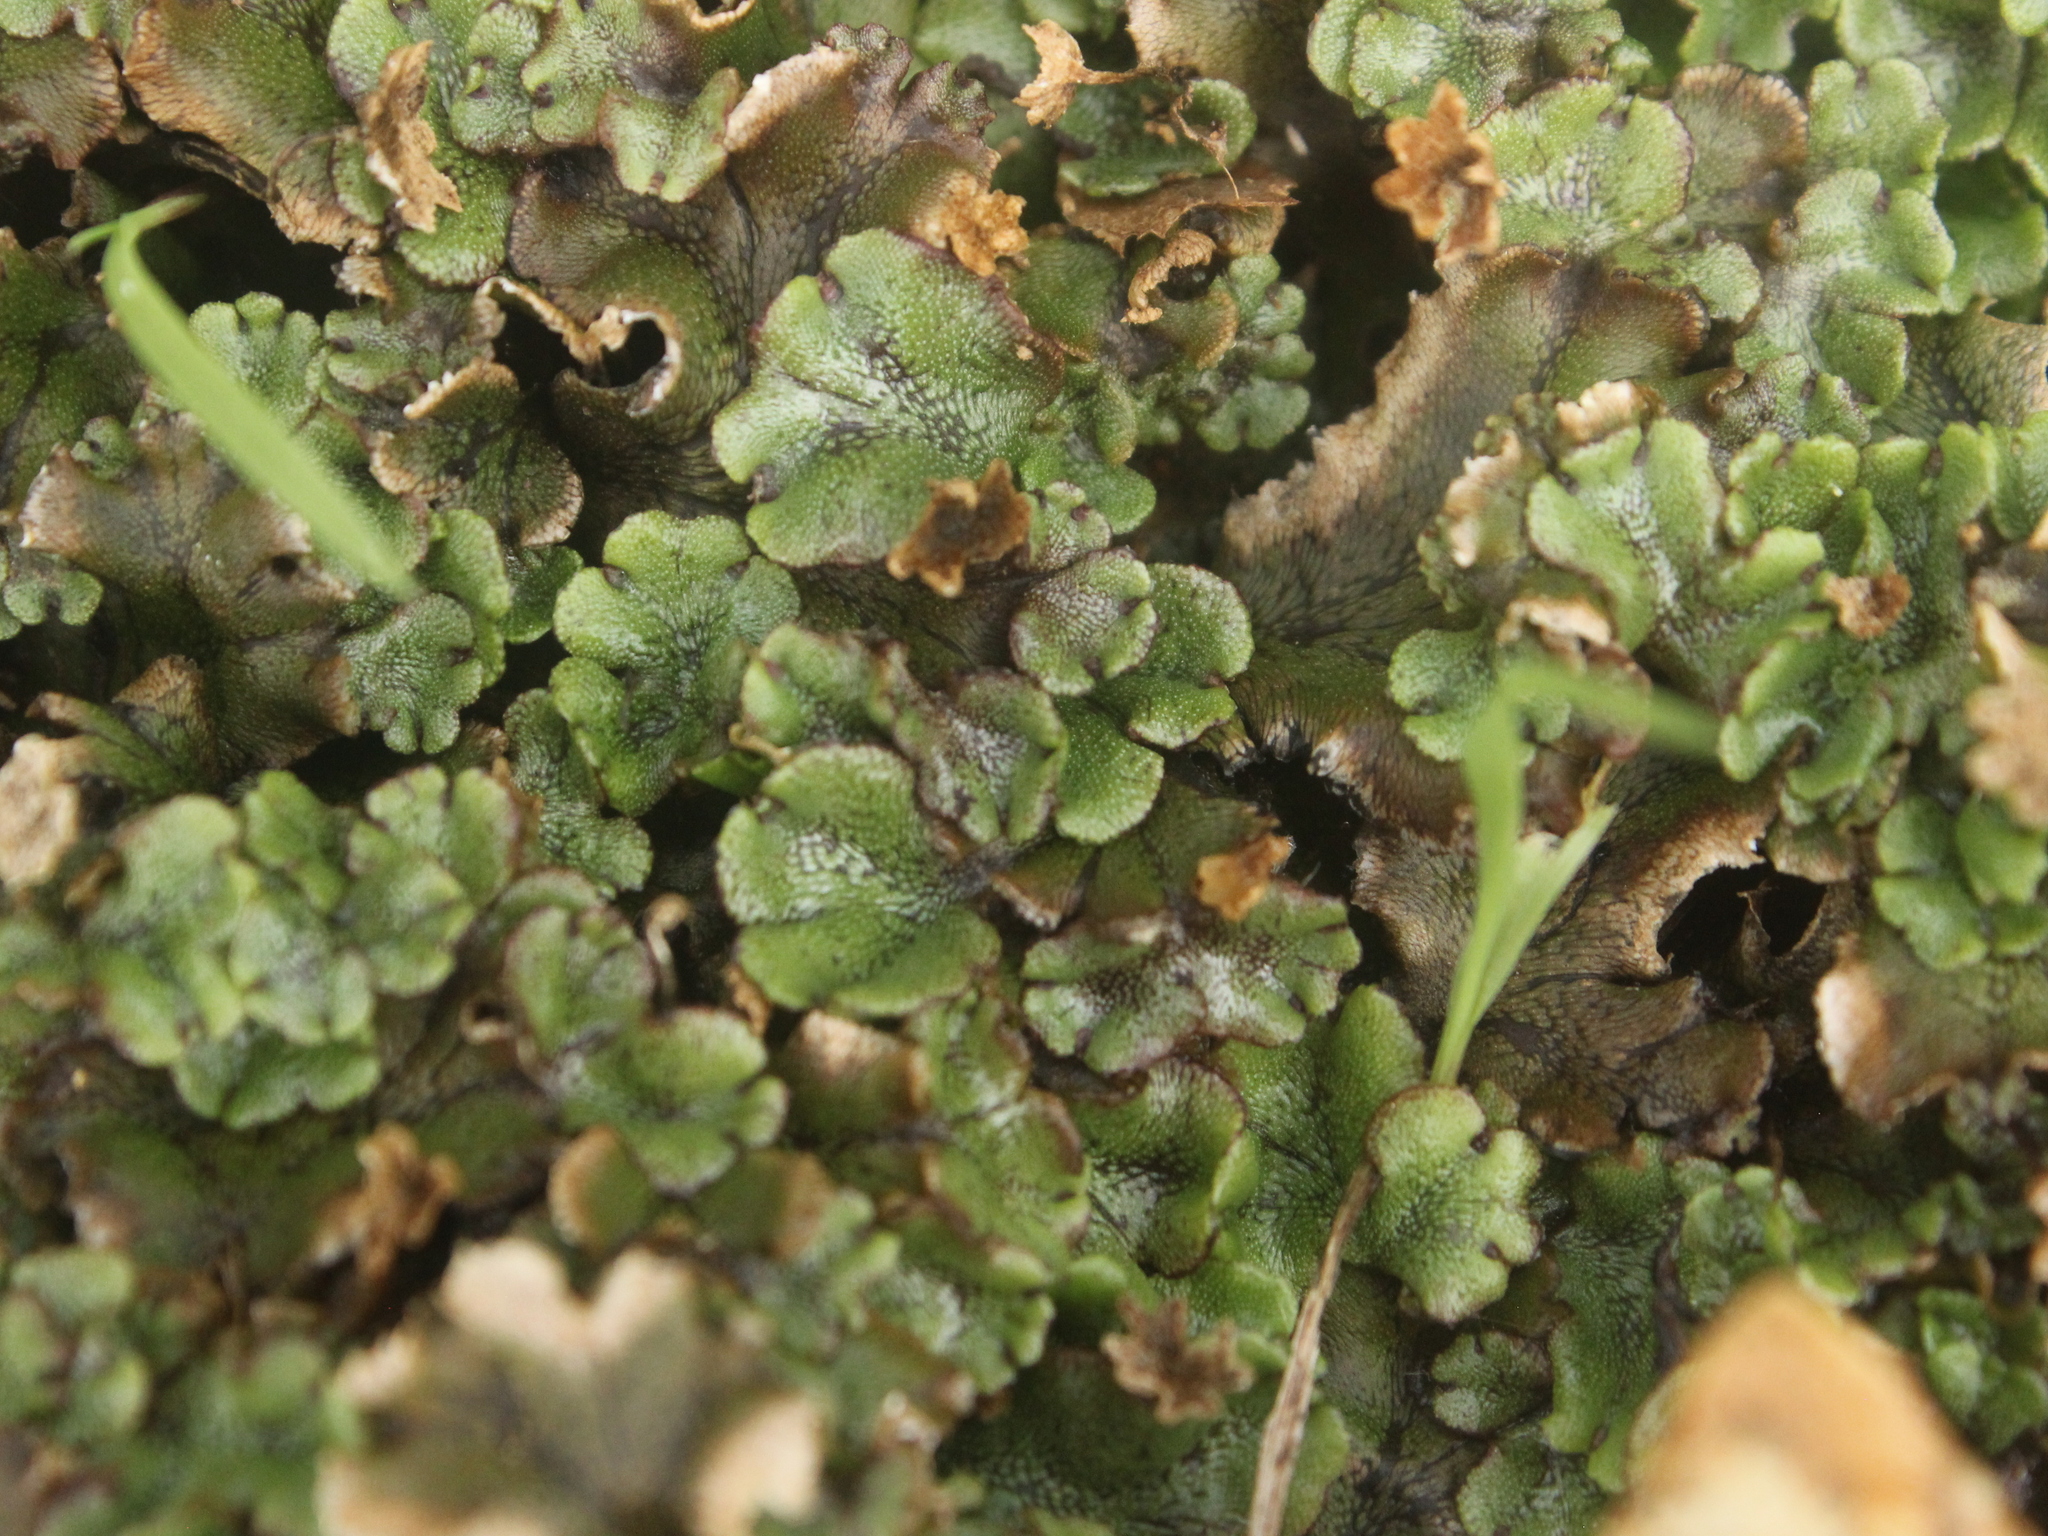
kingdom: Plantae
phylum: Marchantiophyta
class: Marchantiopsida
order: Marchantiales
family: Marchantiaceae
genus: Marchantia
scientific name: Marchantia polymorpha
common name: Common liverwort
